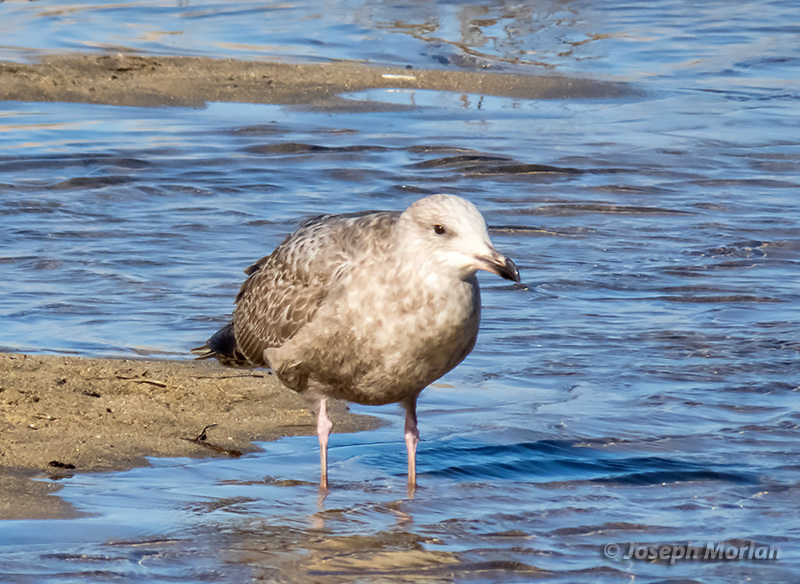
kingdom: Animalia
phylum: Chordata
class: Aves
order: Charadriiformes
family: Laridae
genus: Larus
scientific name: Larus argentatus
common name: Herring gull
